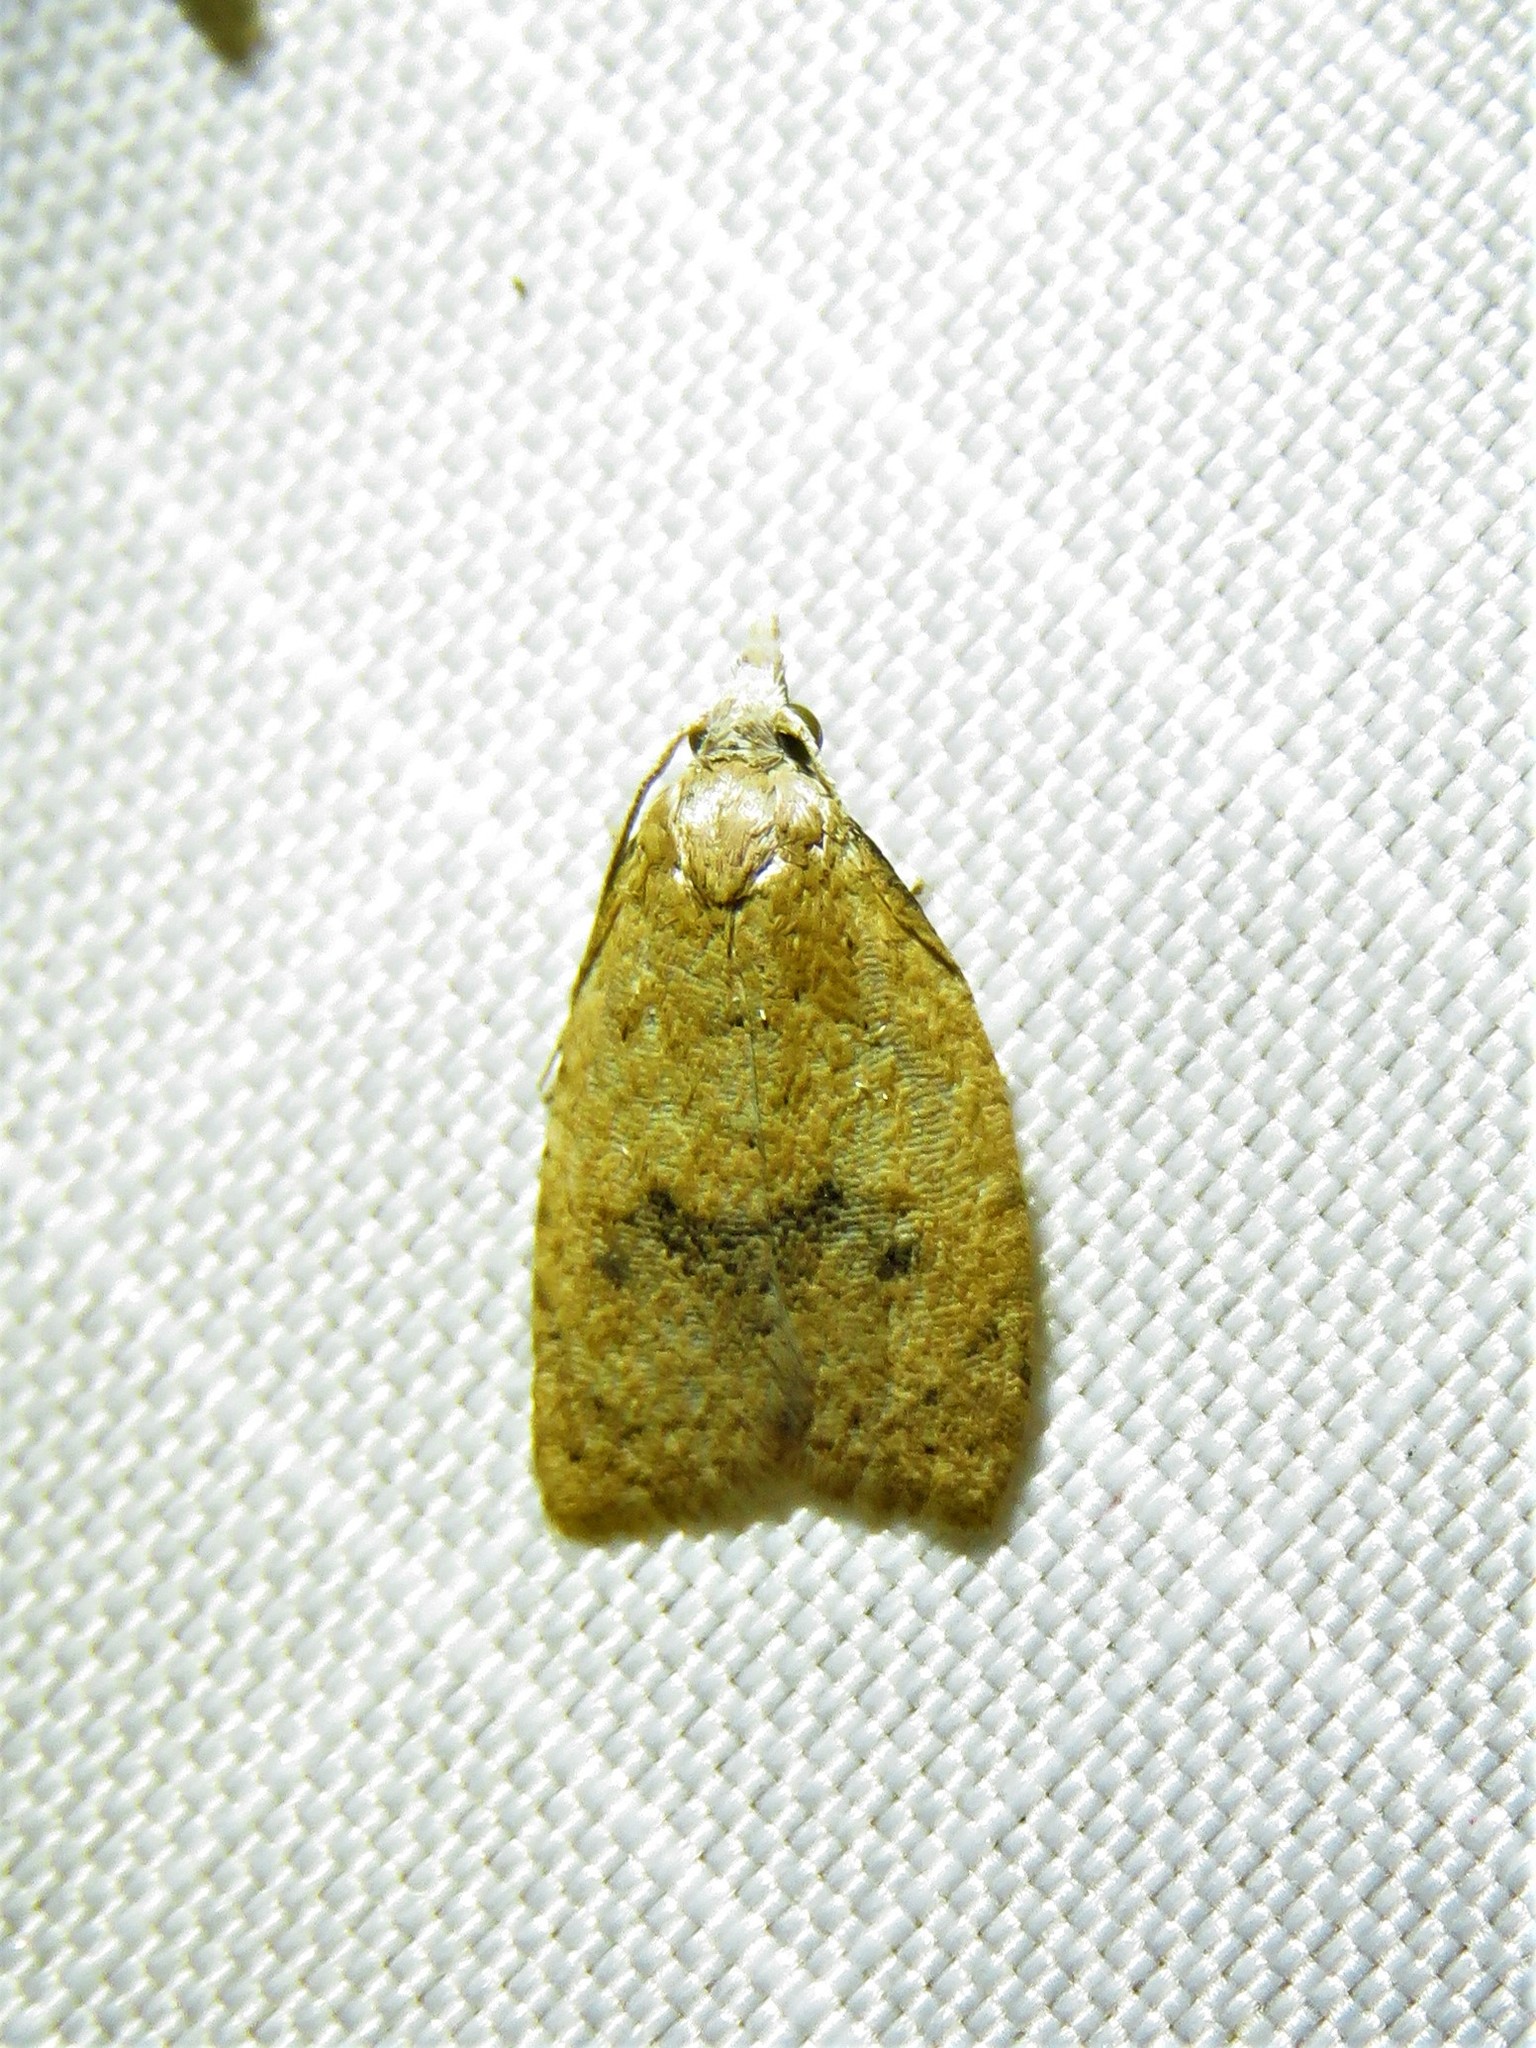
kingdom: Animalia
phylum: Arthropoda
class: Insecta
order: Lepidoptera
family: Tortricidae
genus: Sparganothoides
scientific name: Sparganothoides lentiginosana
